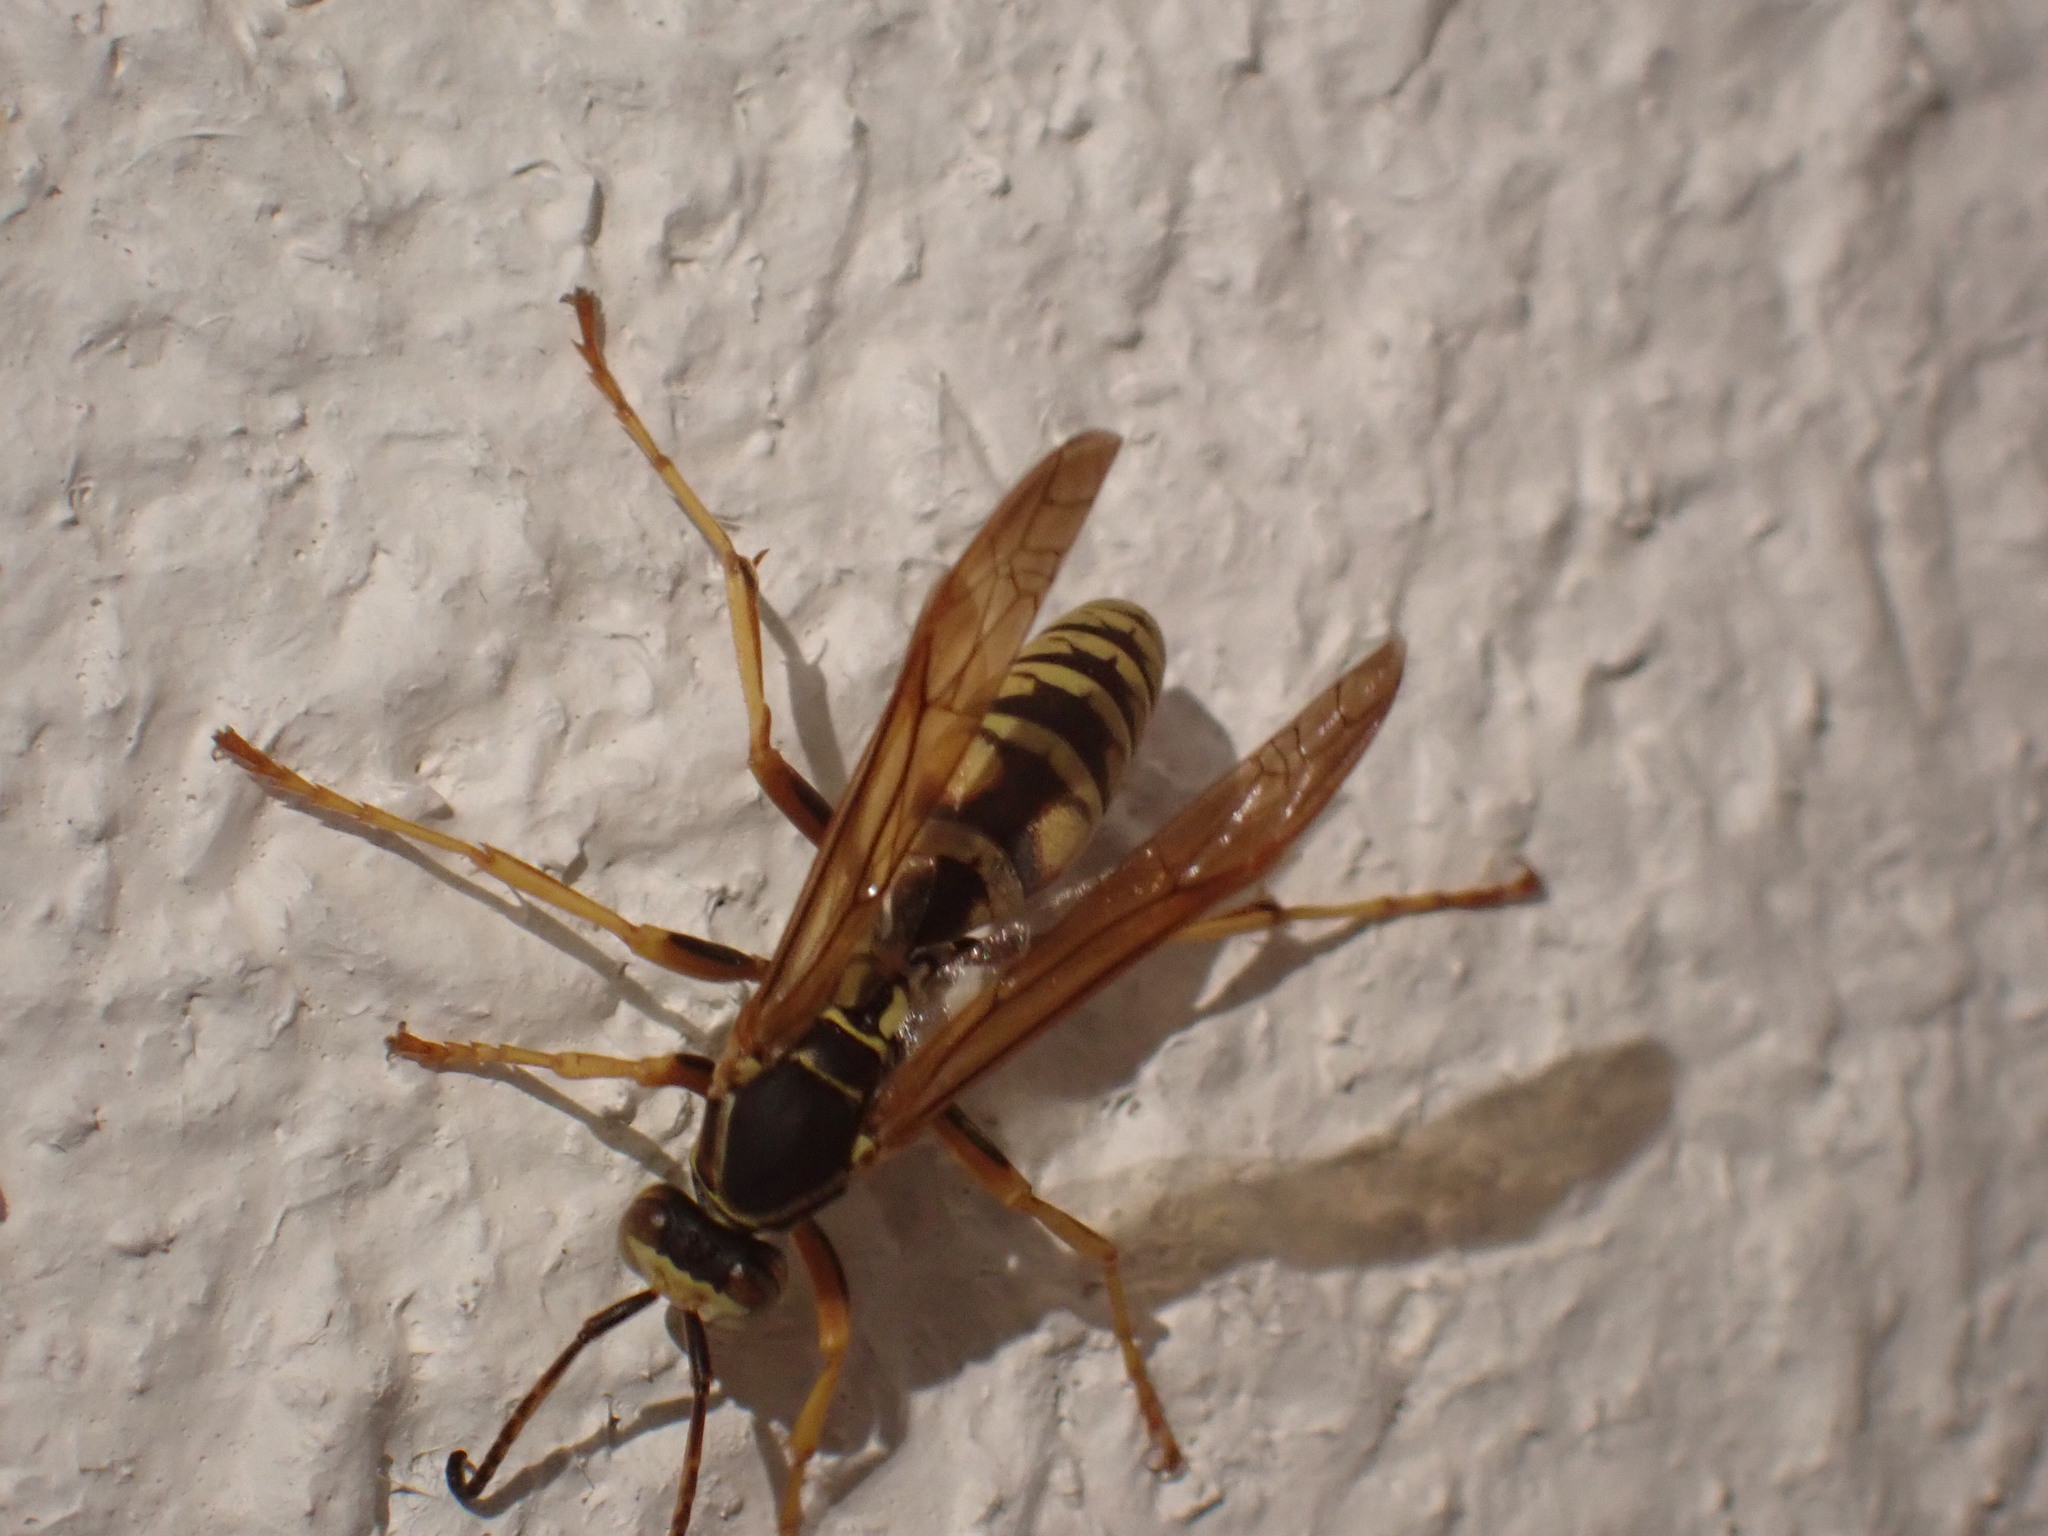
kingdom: Animalia
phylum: Arthropoda
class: Insecta
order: Hymenoptera
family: Eumenidae
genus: Polistes
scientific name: Polistes aurifer
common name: Paper wasp
